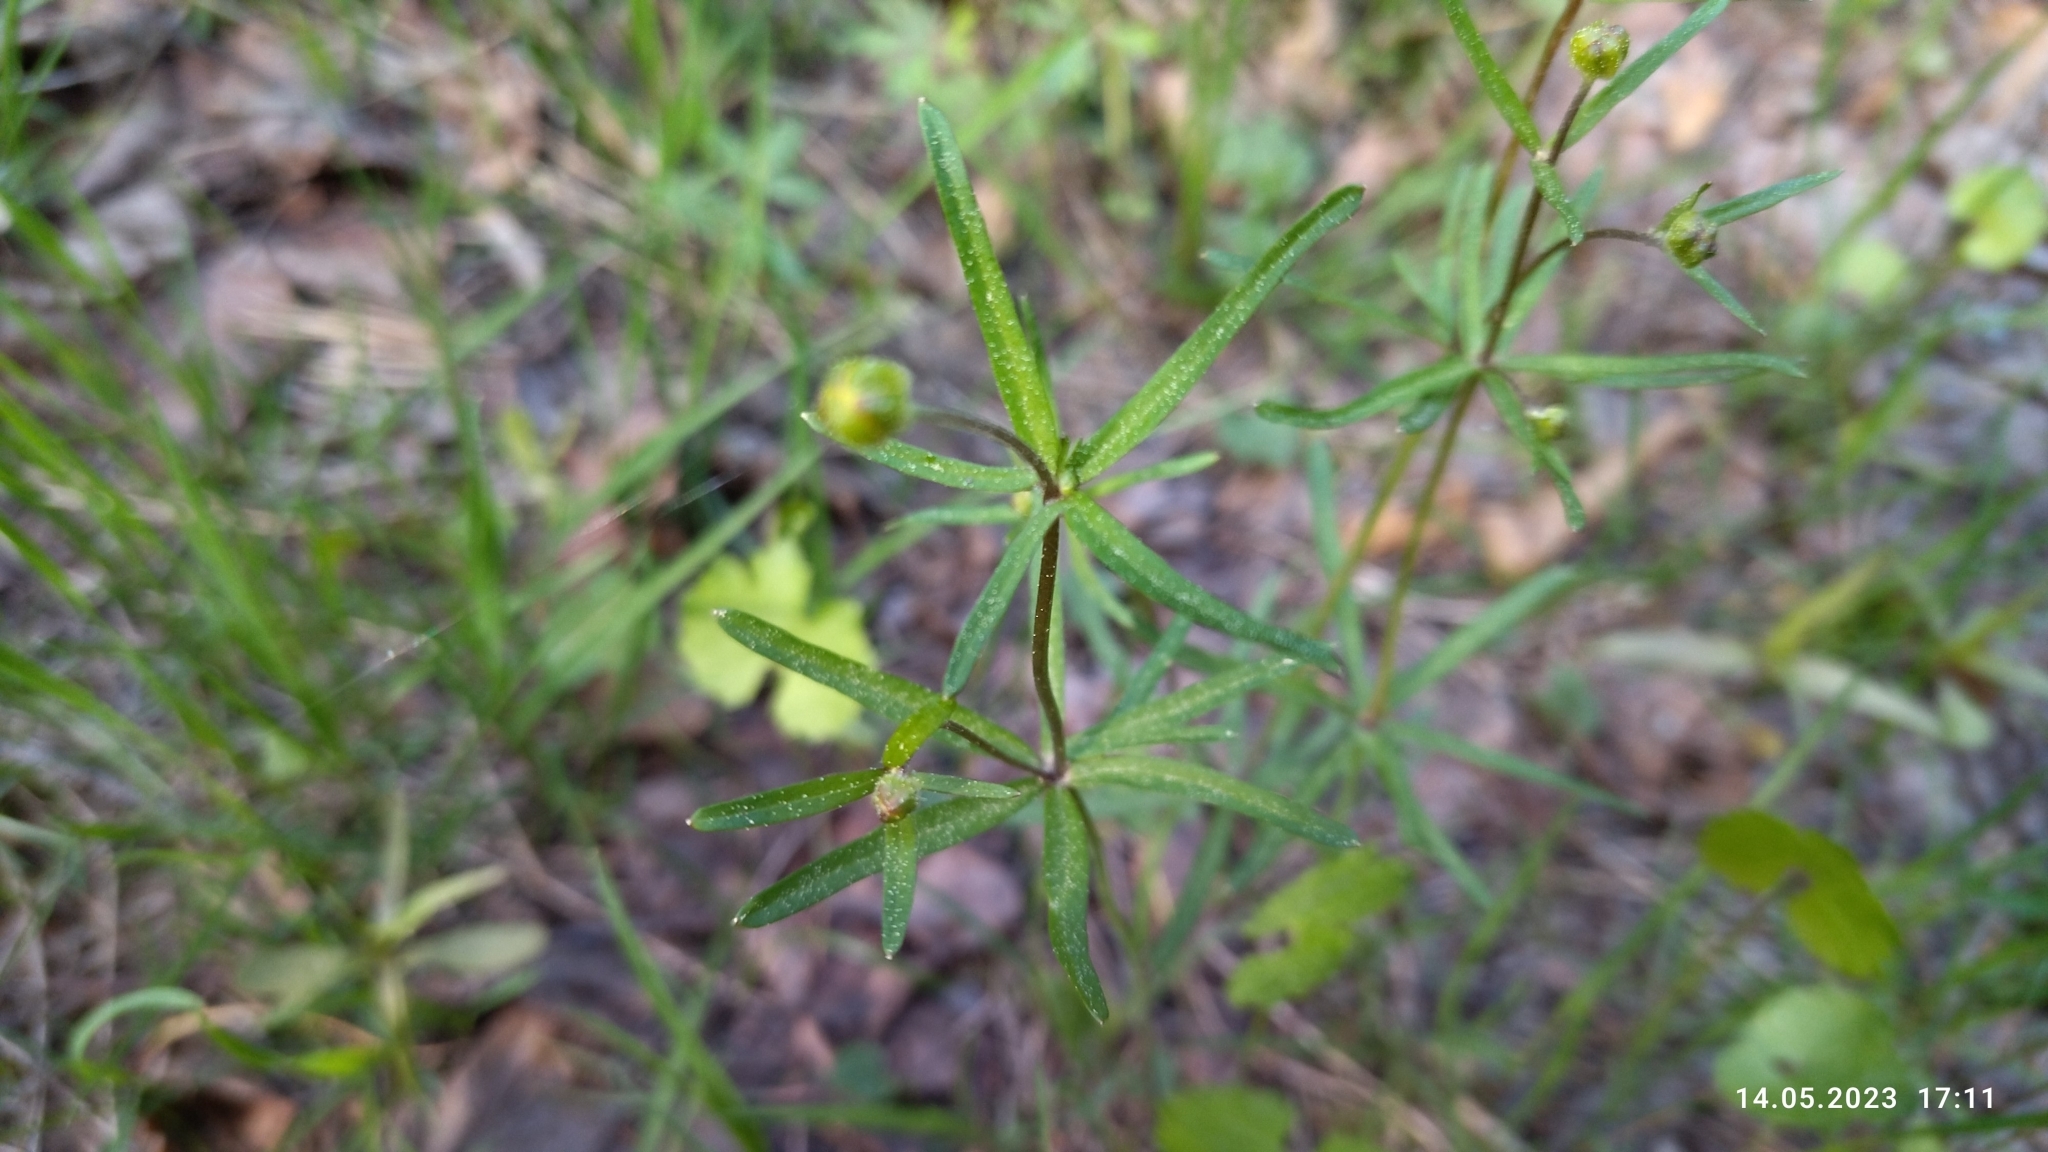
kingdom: Plantae
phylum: Tracheophyta
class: Magnoliopsida
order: Ranunculales
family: Ranunculaceae
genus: Ranunculus
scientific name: Ranunculus auricomus
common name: Goldilocks buttercup
